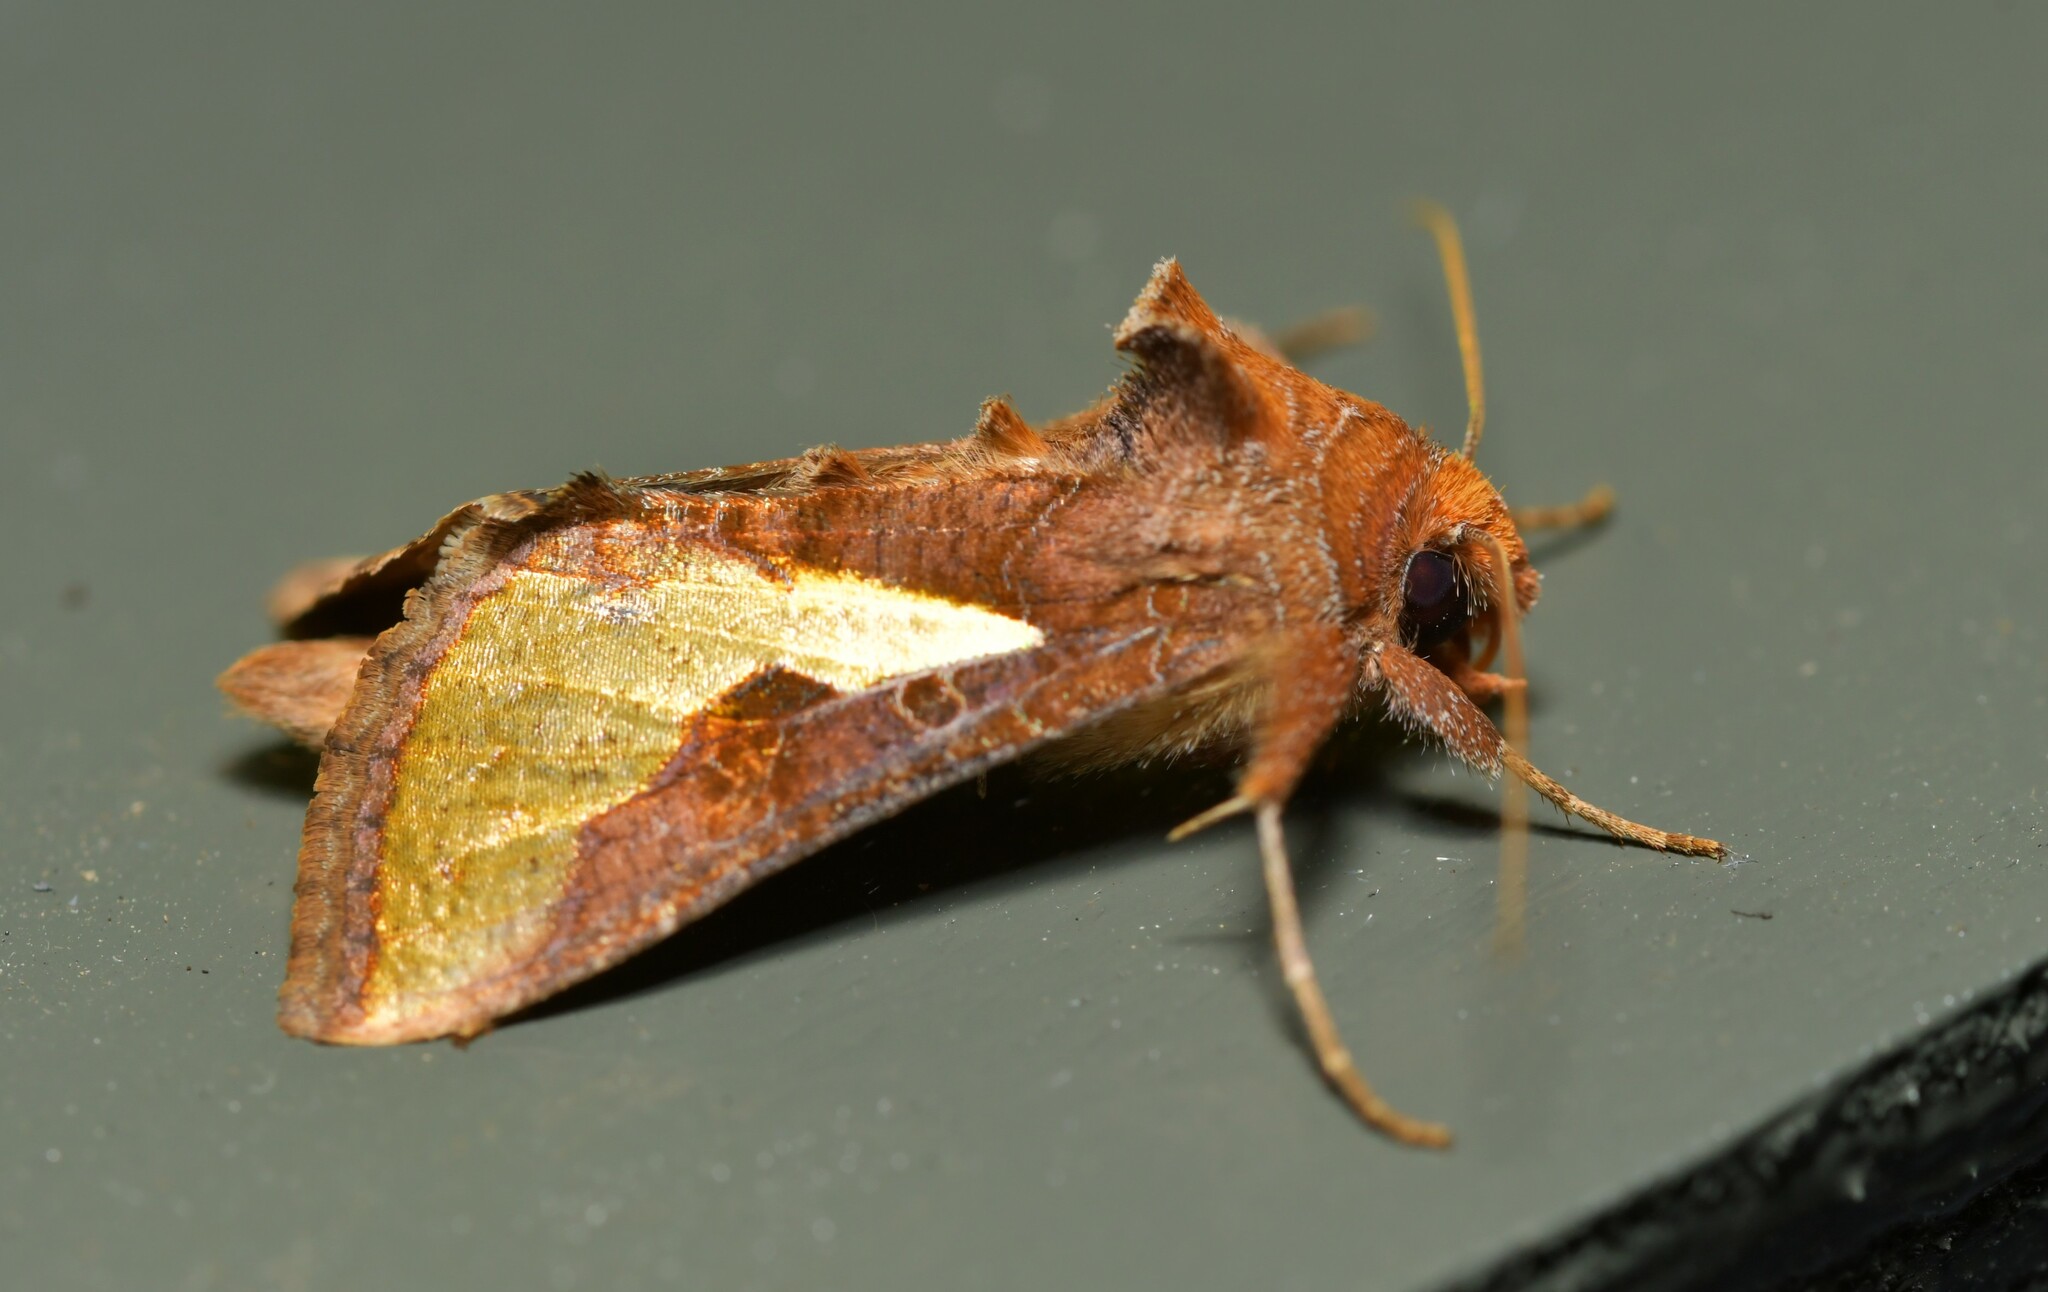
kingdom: Animalia
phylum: Arthropoda
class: Insecta
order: Lepidoptera
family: Noctuidae
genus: Thysanoplusia
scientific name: Thysanoplusia orichalcea
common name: Slender burnished brass, golden plusia
